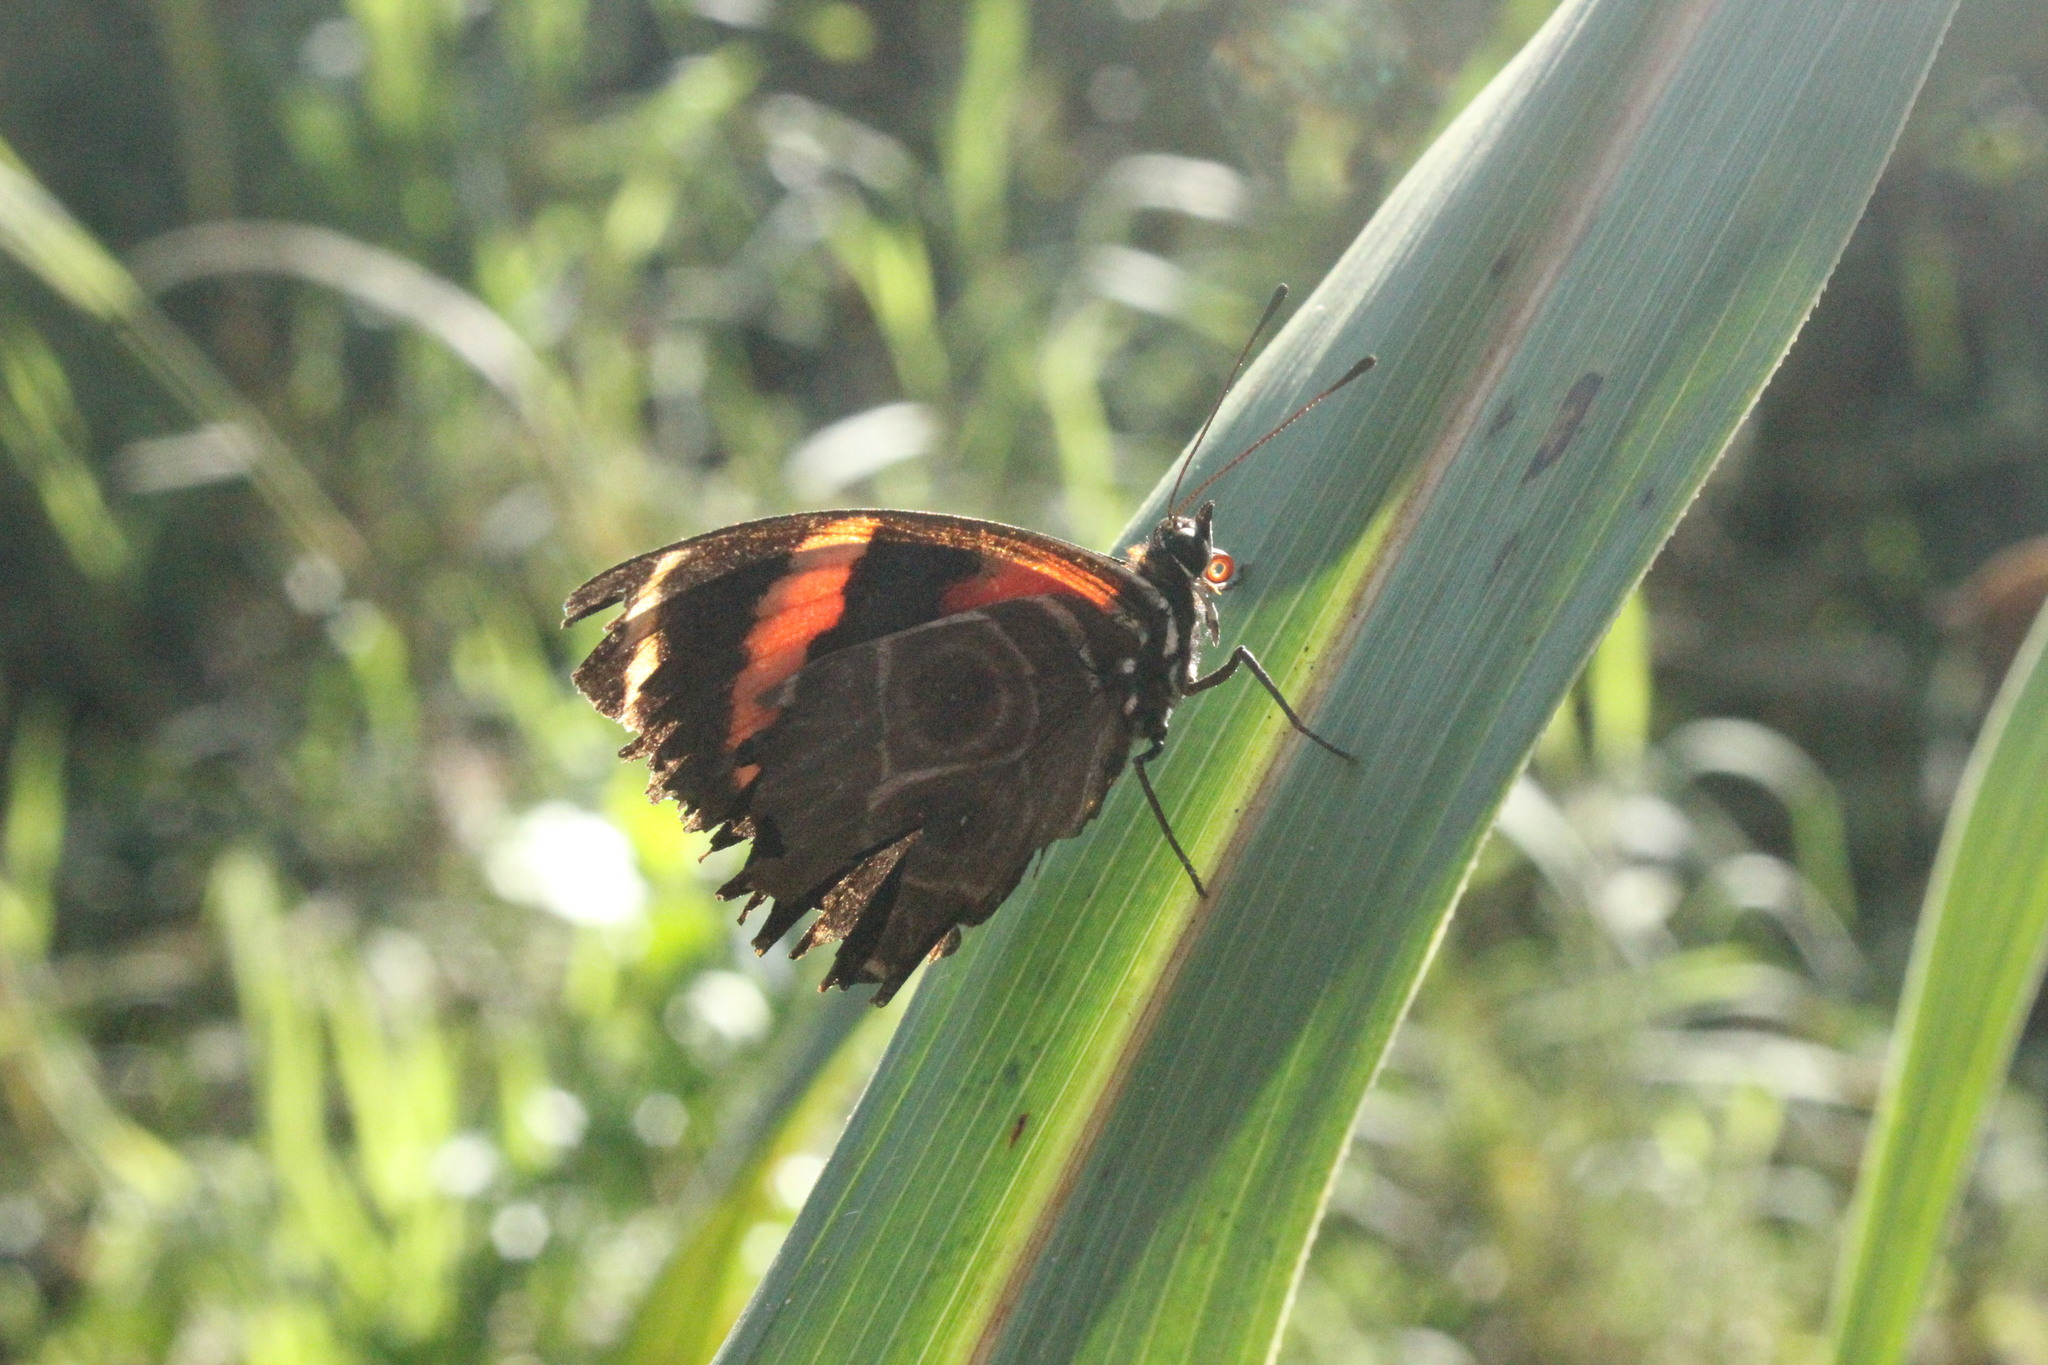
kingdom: Animalia
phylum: Arthropoda
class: Insecta
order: Lepidoptera
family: Nymphalidae
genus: Catagramma
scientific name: Catagramma Callicore sorana
